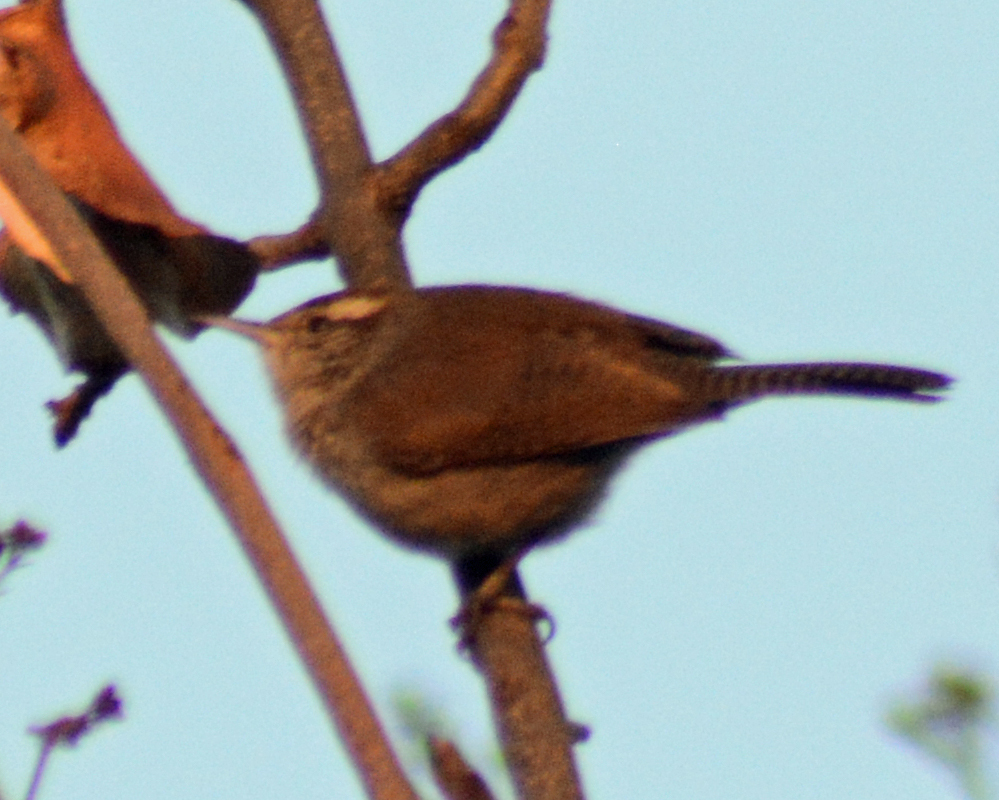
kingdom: Animalia
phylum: Chordata
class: Aves
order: Passeriformes
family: Troglodytidae
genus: Thryomanes
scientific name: Thryomanes bewickii
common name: Bewick's wren
